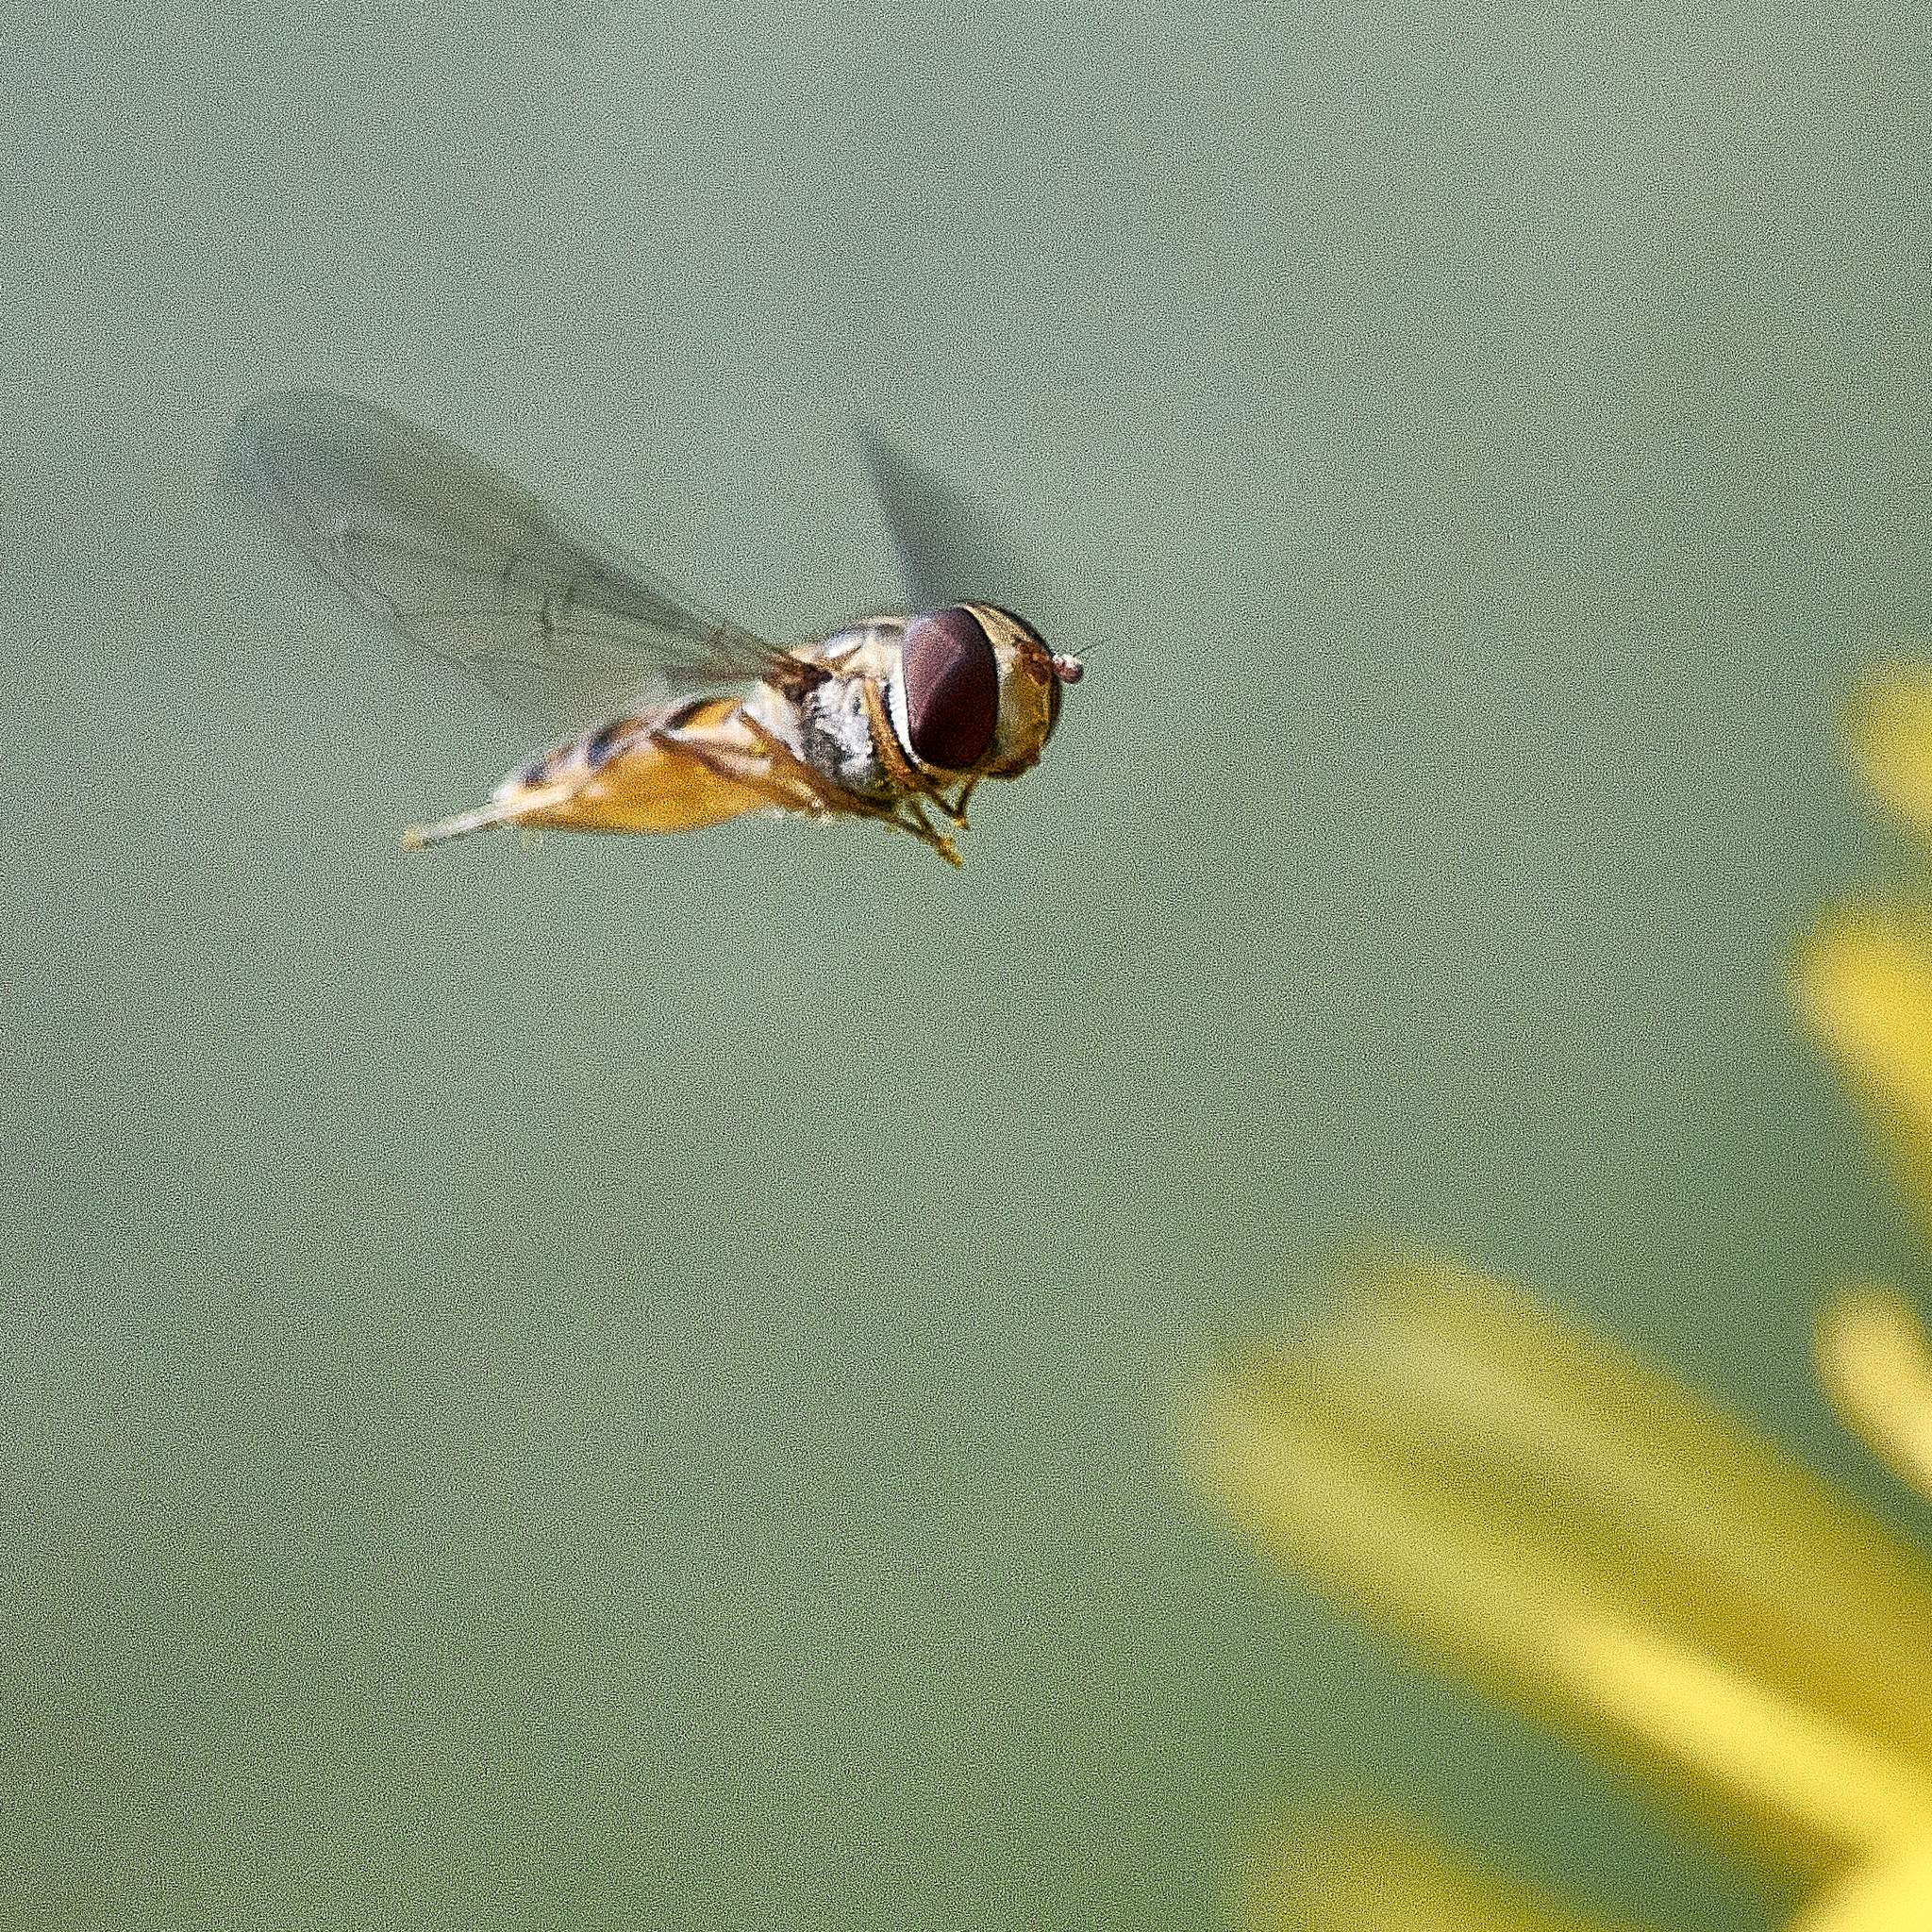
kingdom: Animalia
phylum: Arthropoda
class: Insecta
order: Diptera
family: Syrphidae
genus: Episyrphus
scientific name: Episyrphus balteatus
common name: Marmalade hoverfly
